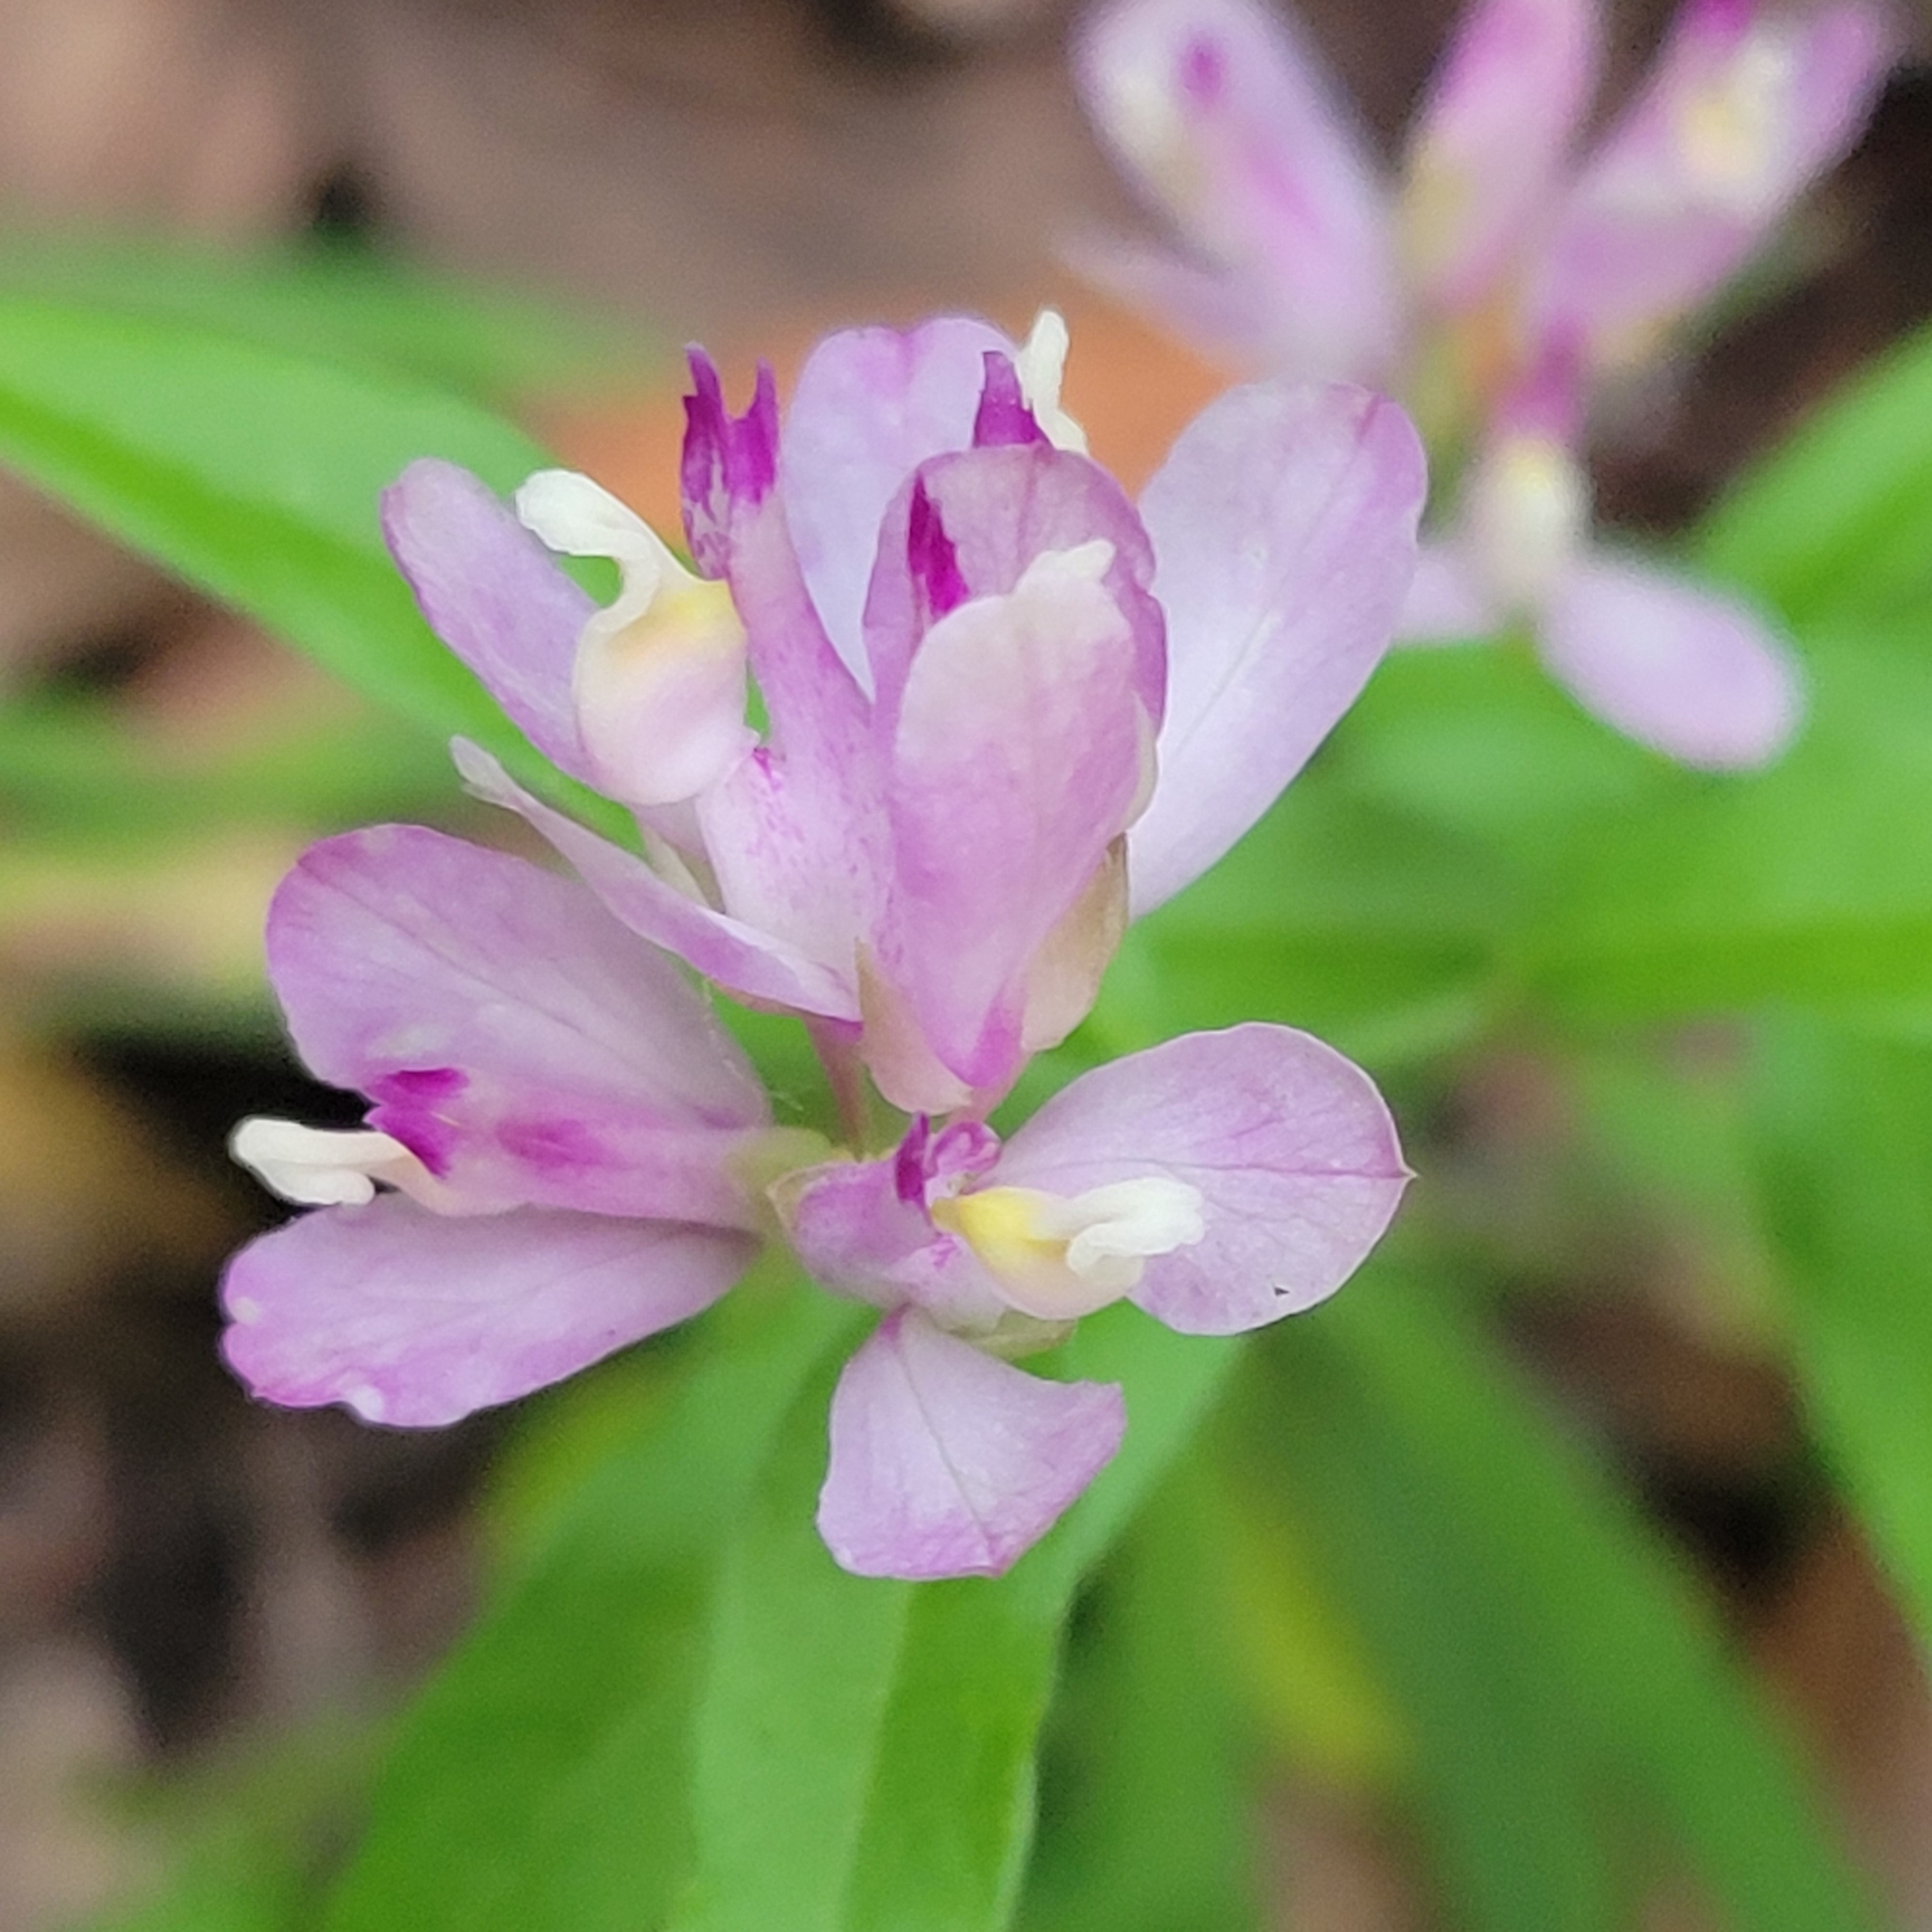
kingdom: Plantae
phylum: Tracheophyta
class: Magnoliopsida
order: Fabales
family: Polygalaceae
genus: Rhinotropis
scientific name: Rhinotropis californica
